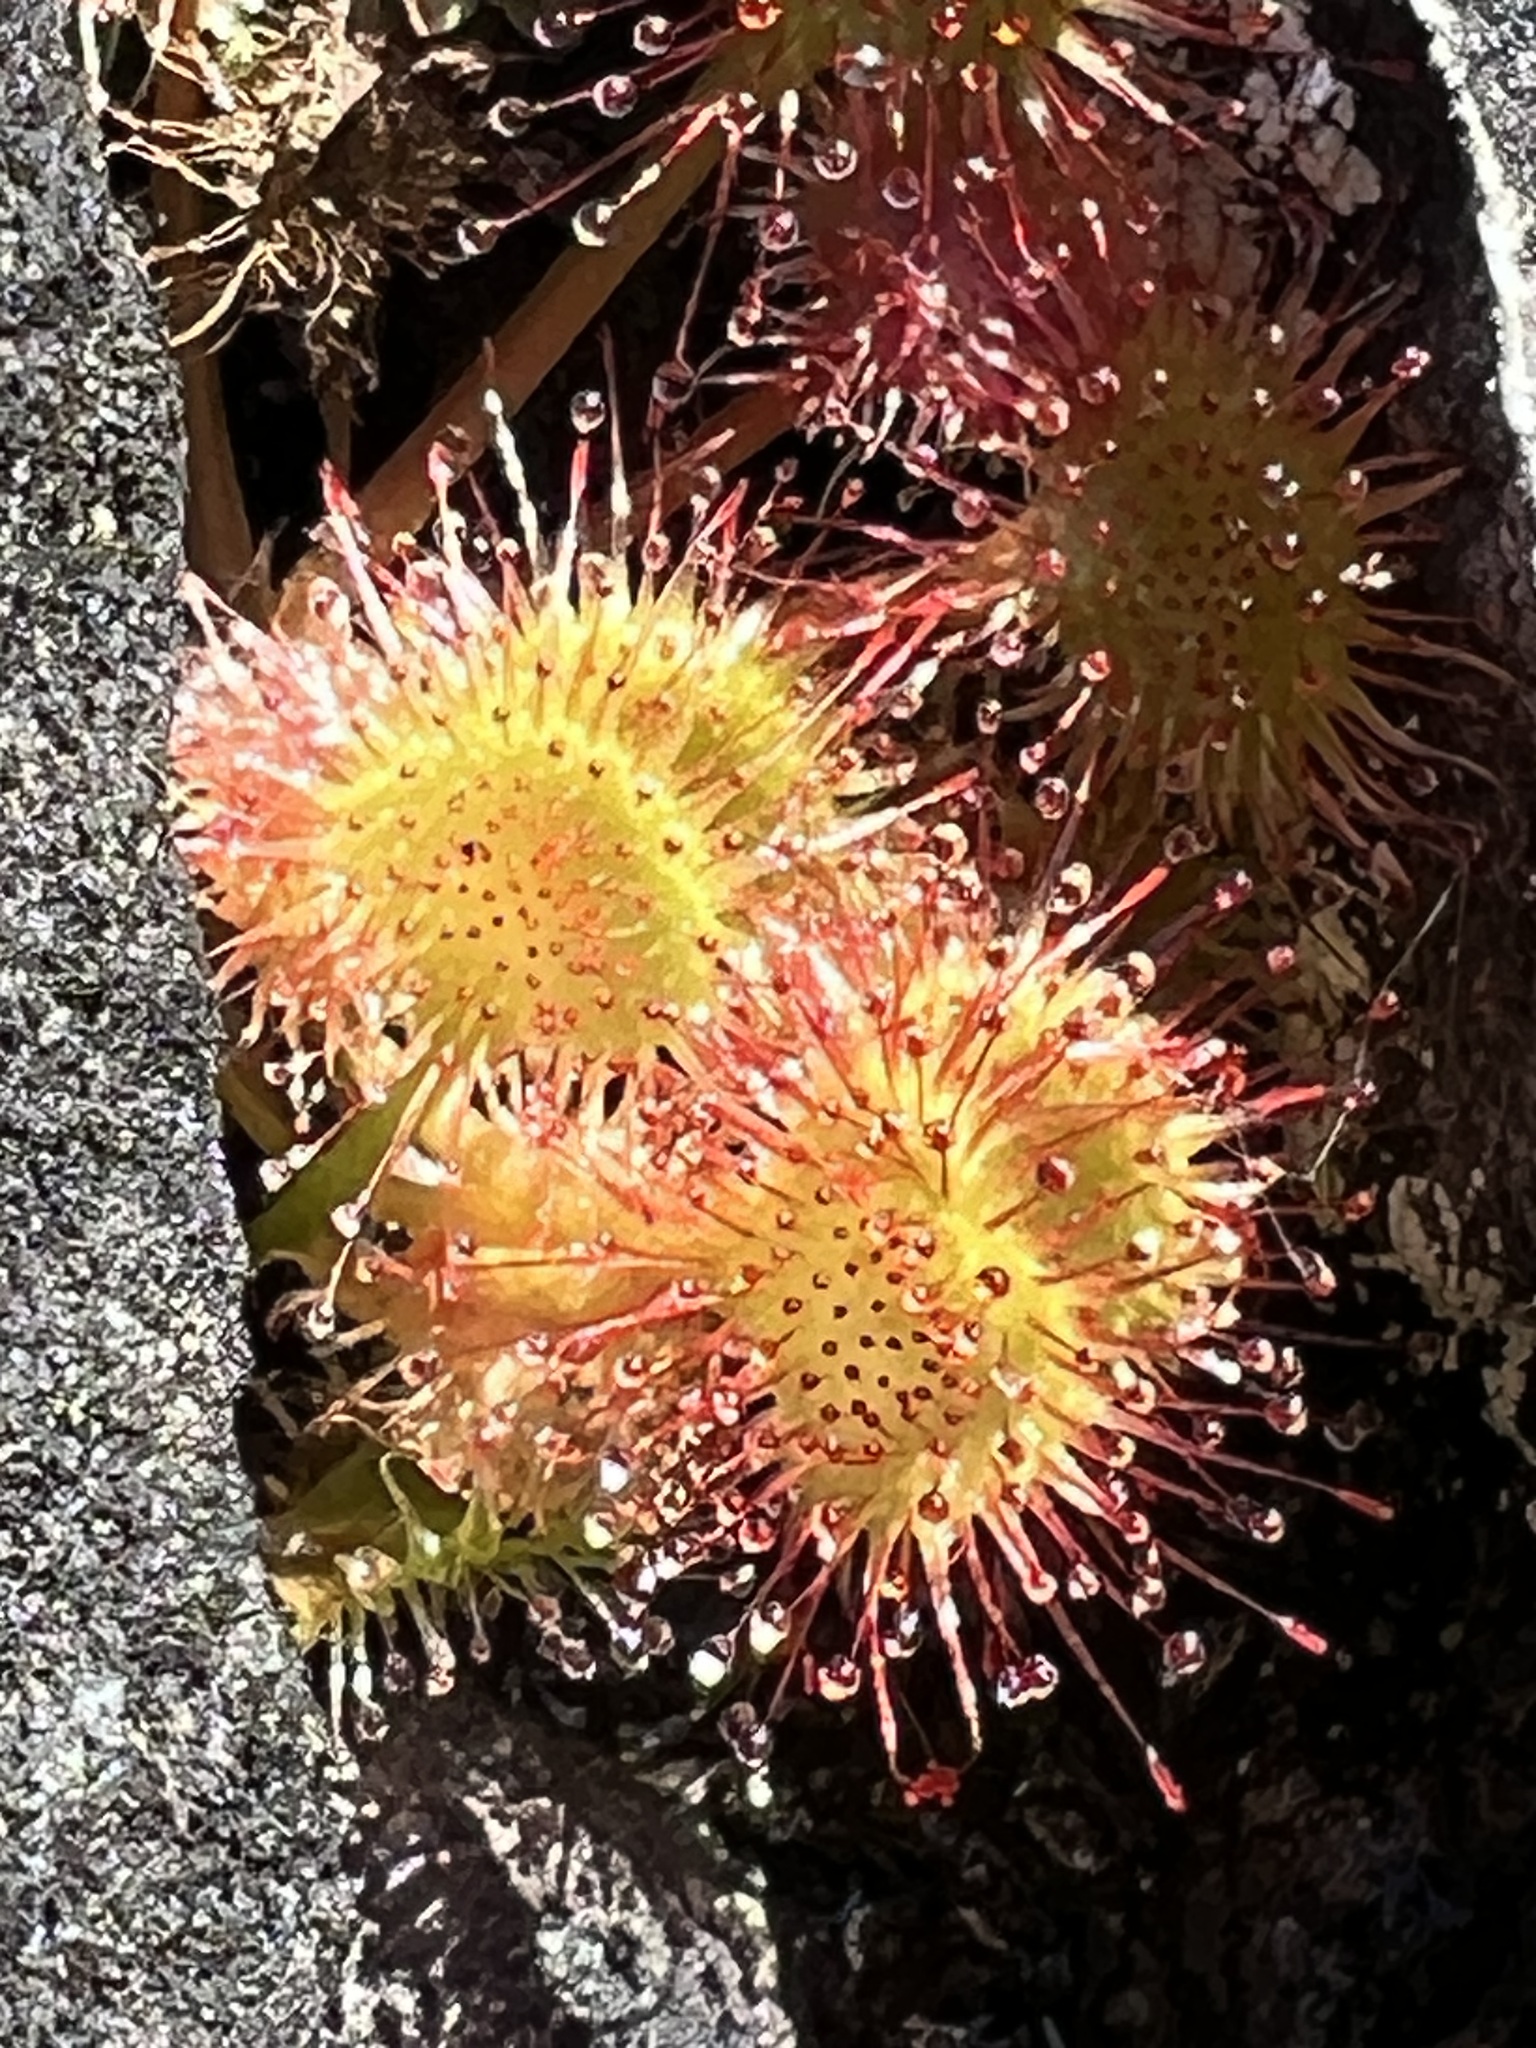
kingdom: Plantae
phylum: Tracheophyta
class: Magnoliopsida
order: Caryophyllales
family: Droseraceae
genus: Drosera
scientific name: Drosera rotundifolia
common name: Round-leaved sundew
